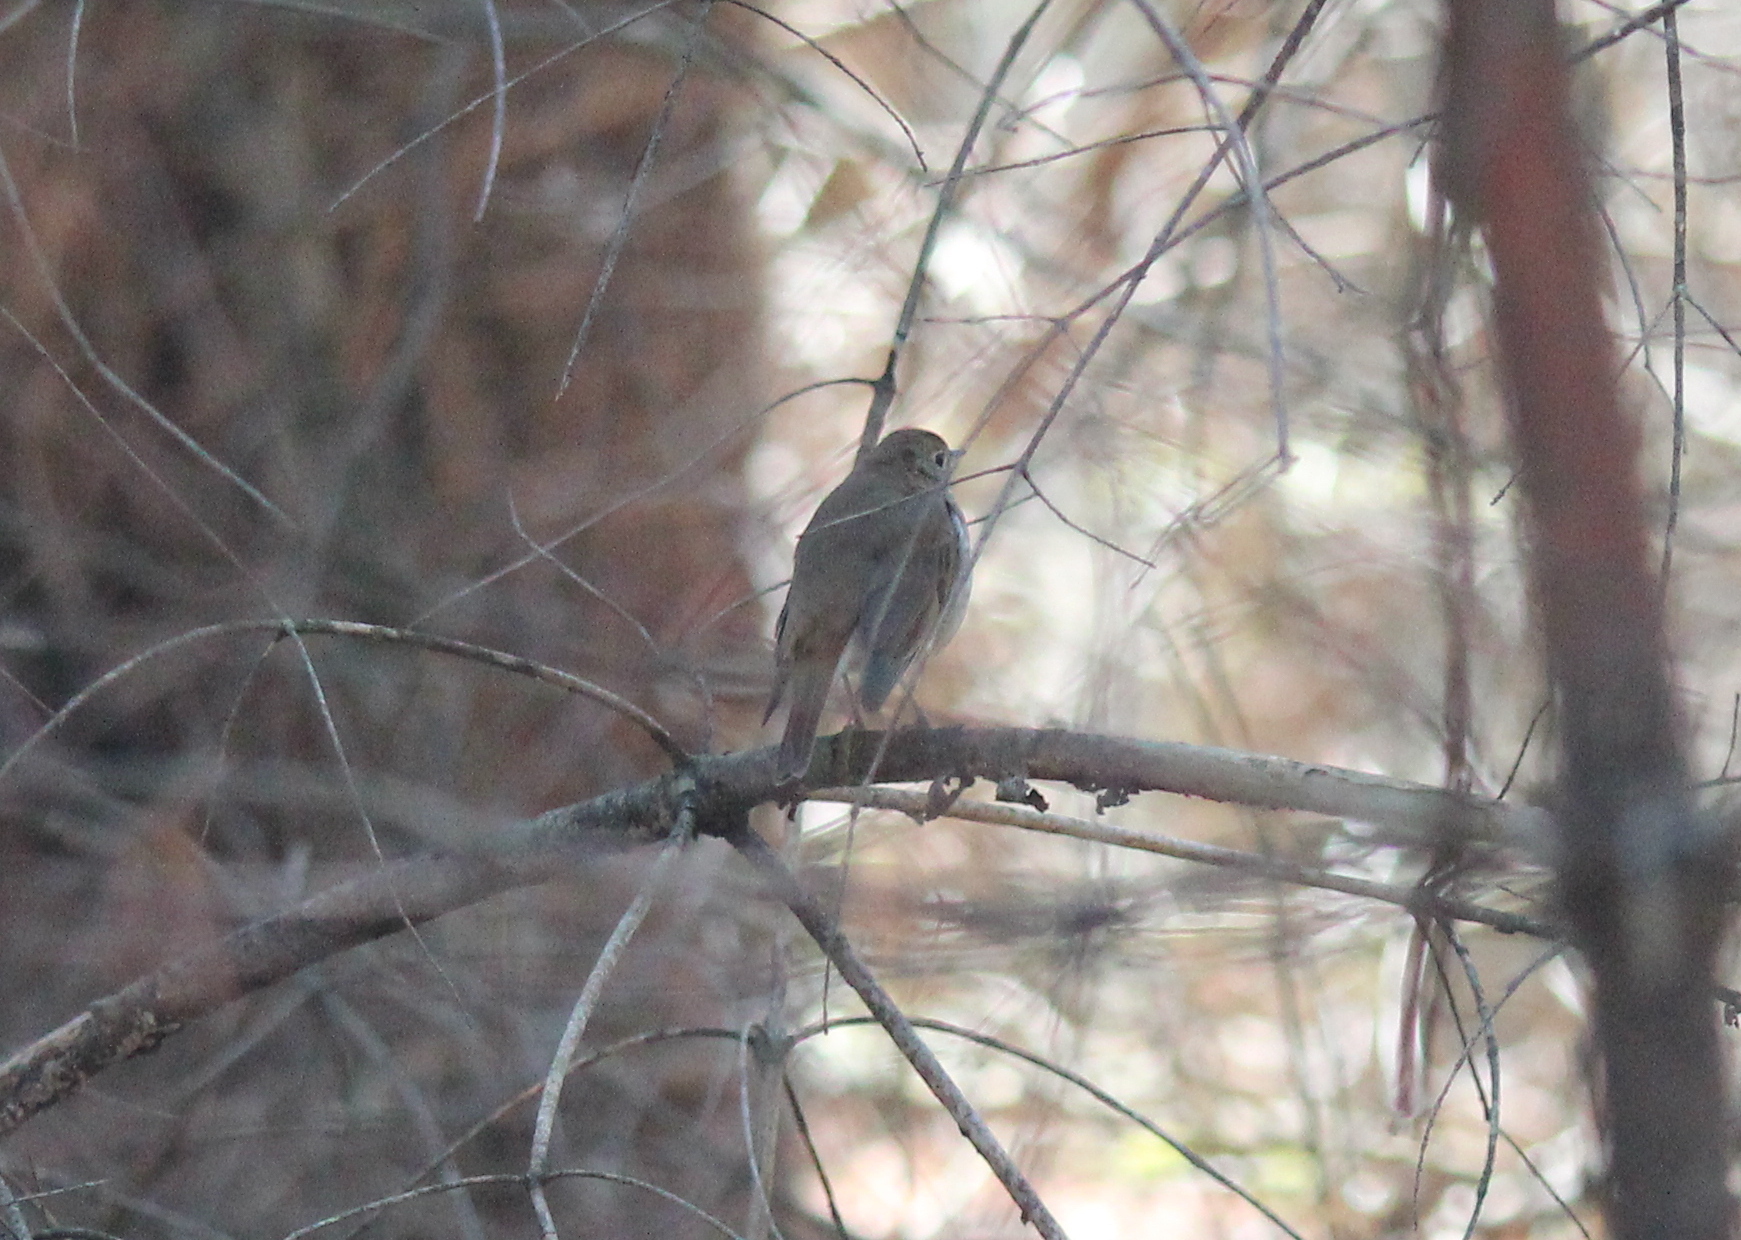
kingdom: Animalia
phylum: Chordata
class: Aves
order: Passeriformes
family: Turdidae
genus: Catharus
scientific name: Catharus guttatus
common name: Hermit thrush
